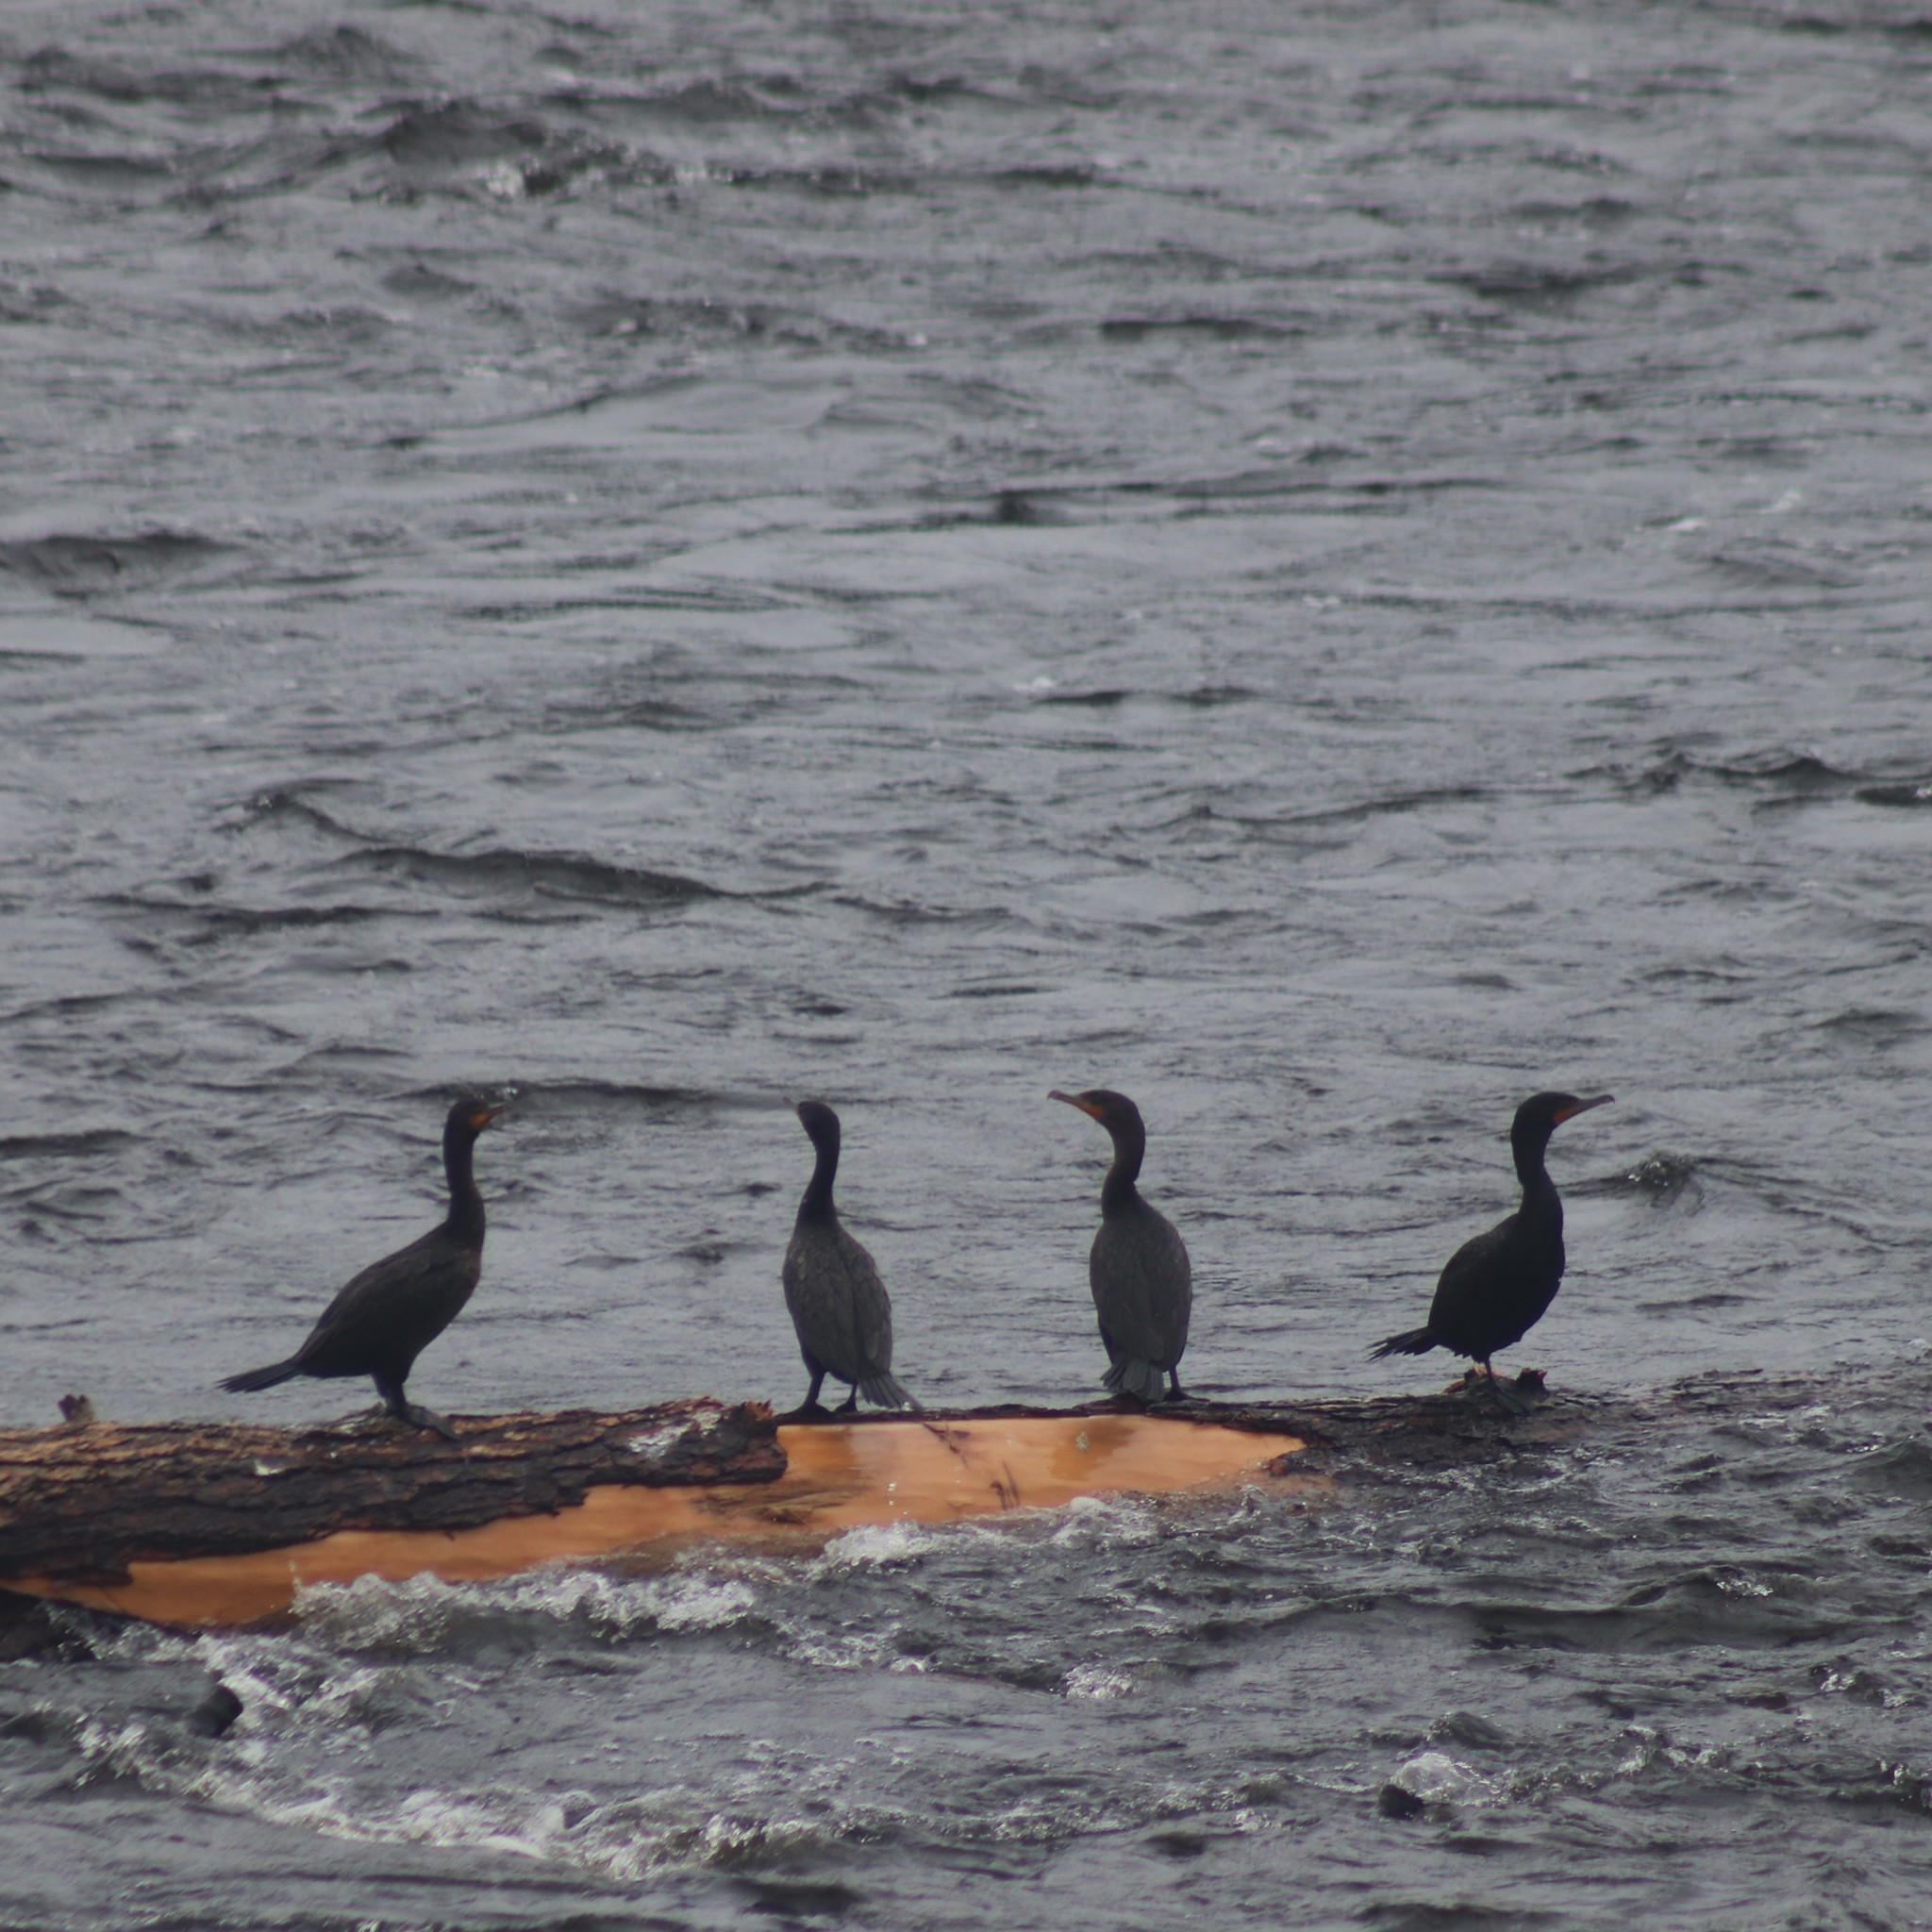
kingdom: Animalia
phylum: Chordata
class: Aves
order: Suliformes
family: Phalacrocoracidae
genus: Phalacrocorax
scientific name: Phalacrocorax auritus
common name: Double-crested cormorant
